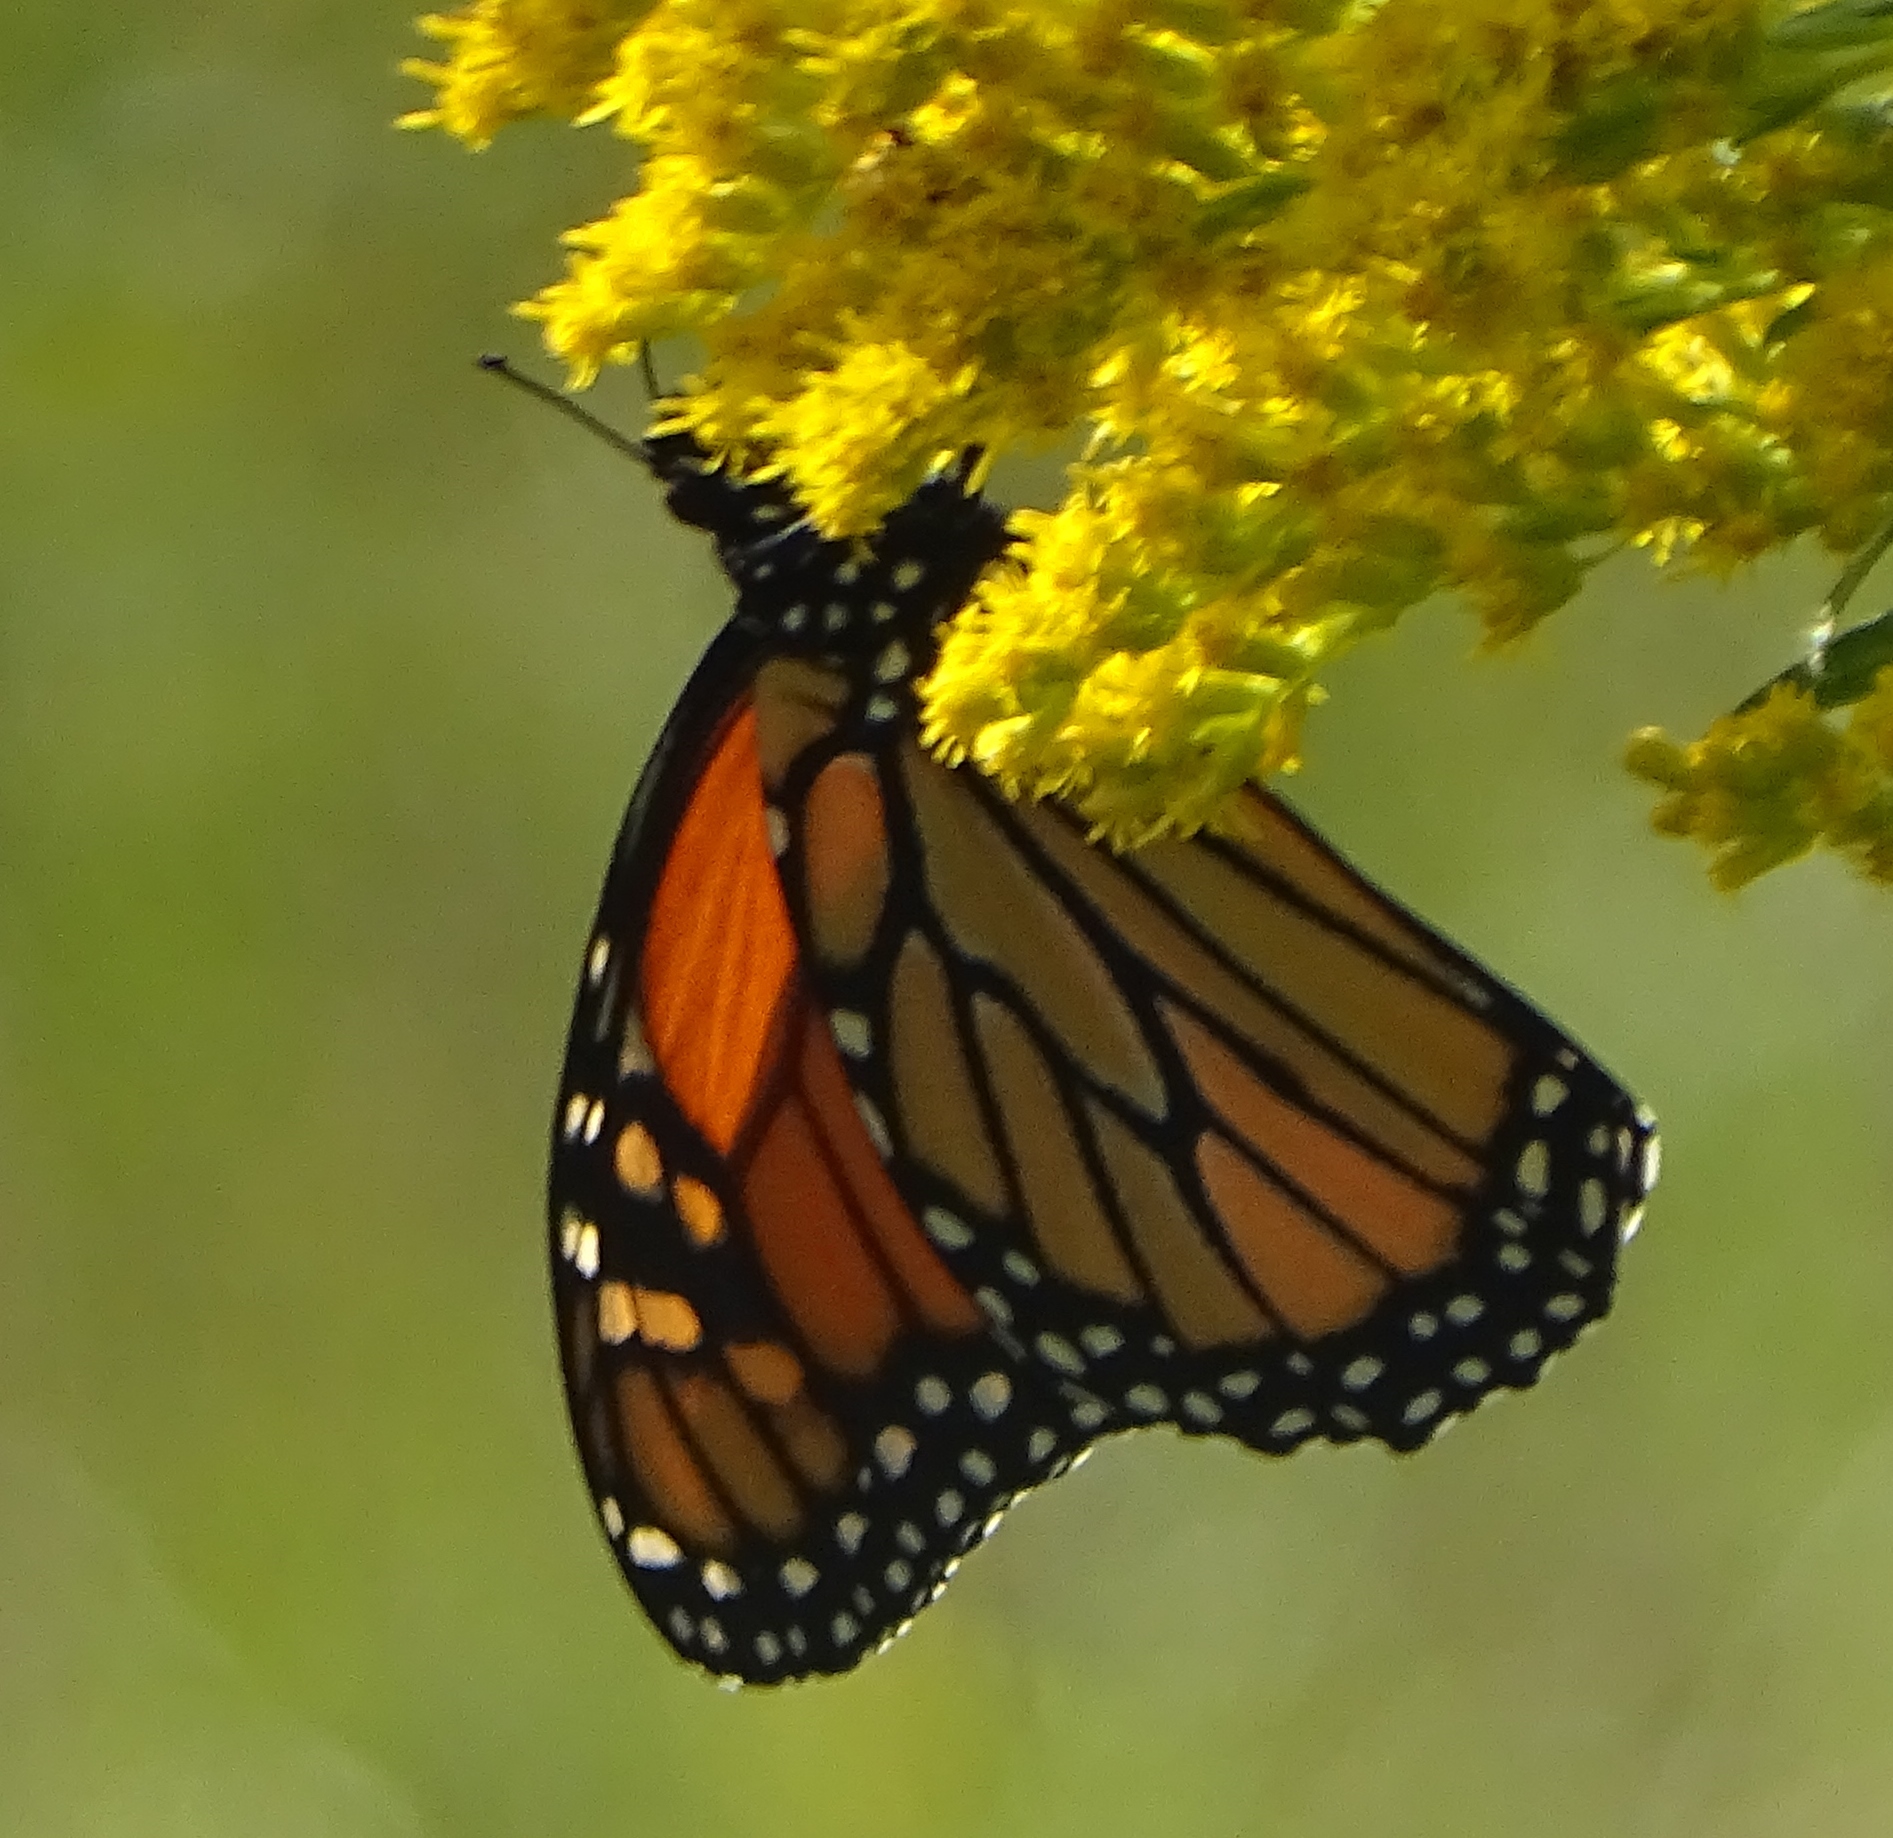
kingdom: Animalia
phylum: Arthropoda
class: Insecta
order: Lepidoptera
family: Nymphalidae
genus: Danaus
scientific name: Danaus plexippus
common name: Monarch
